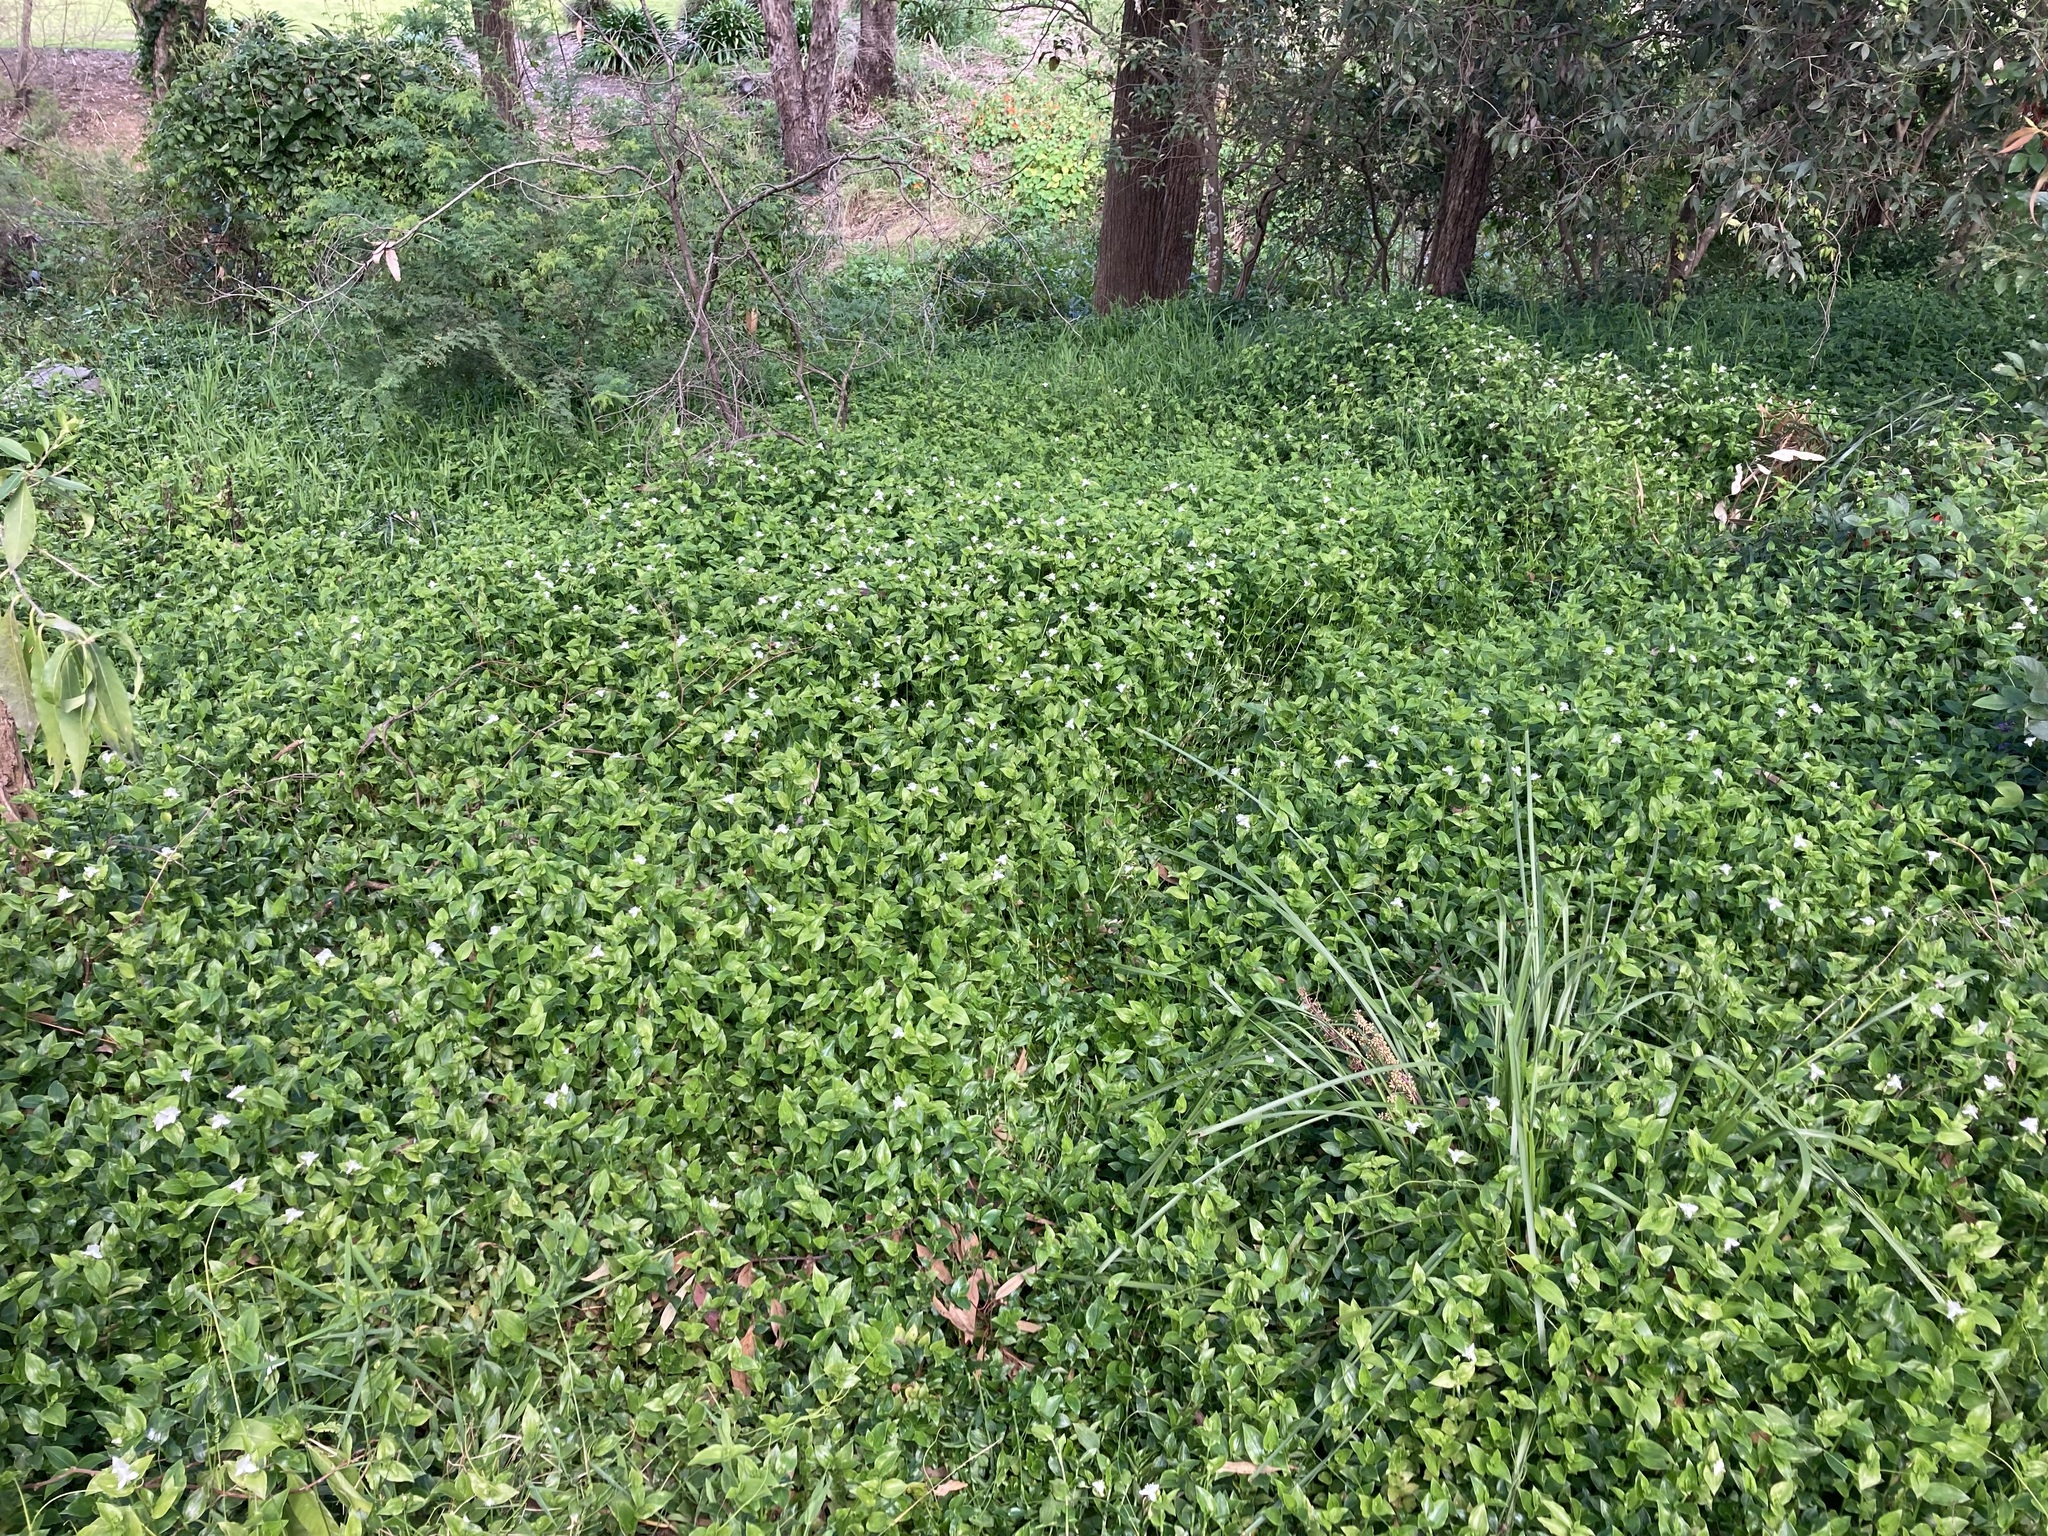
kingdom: Plantae
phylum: Tracheophyta
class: Liliopsida
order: Commelinales
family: Commelinaceae
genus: Tradescantia
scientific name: Tradescantia fluminensis
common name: Wandering-jew
